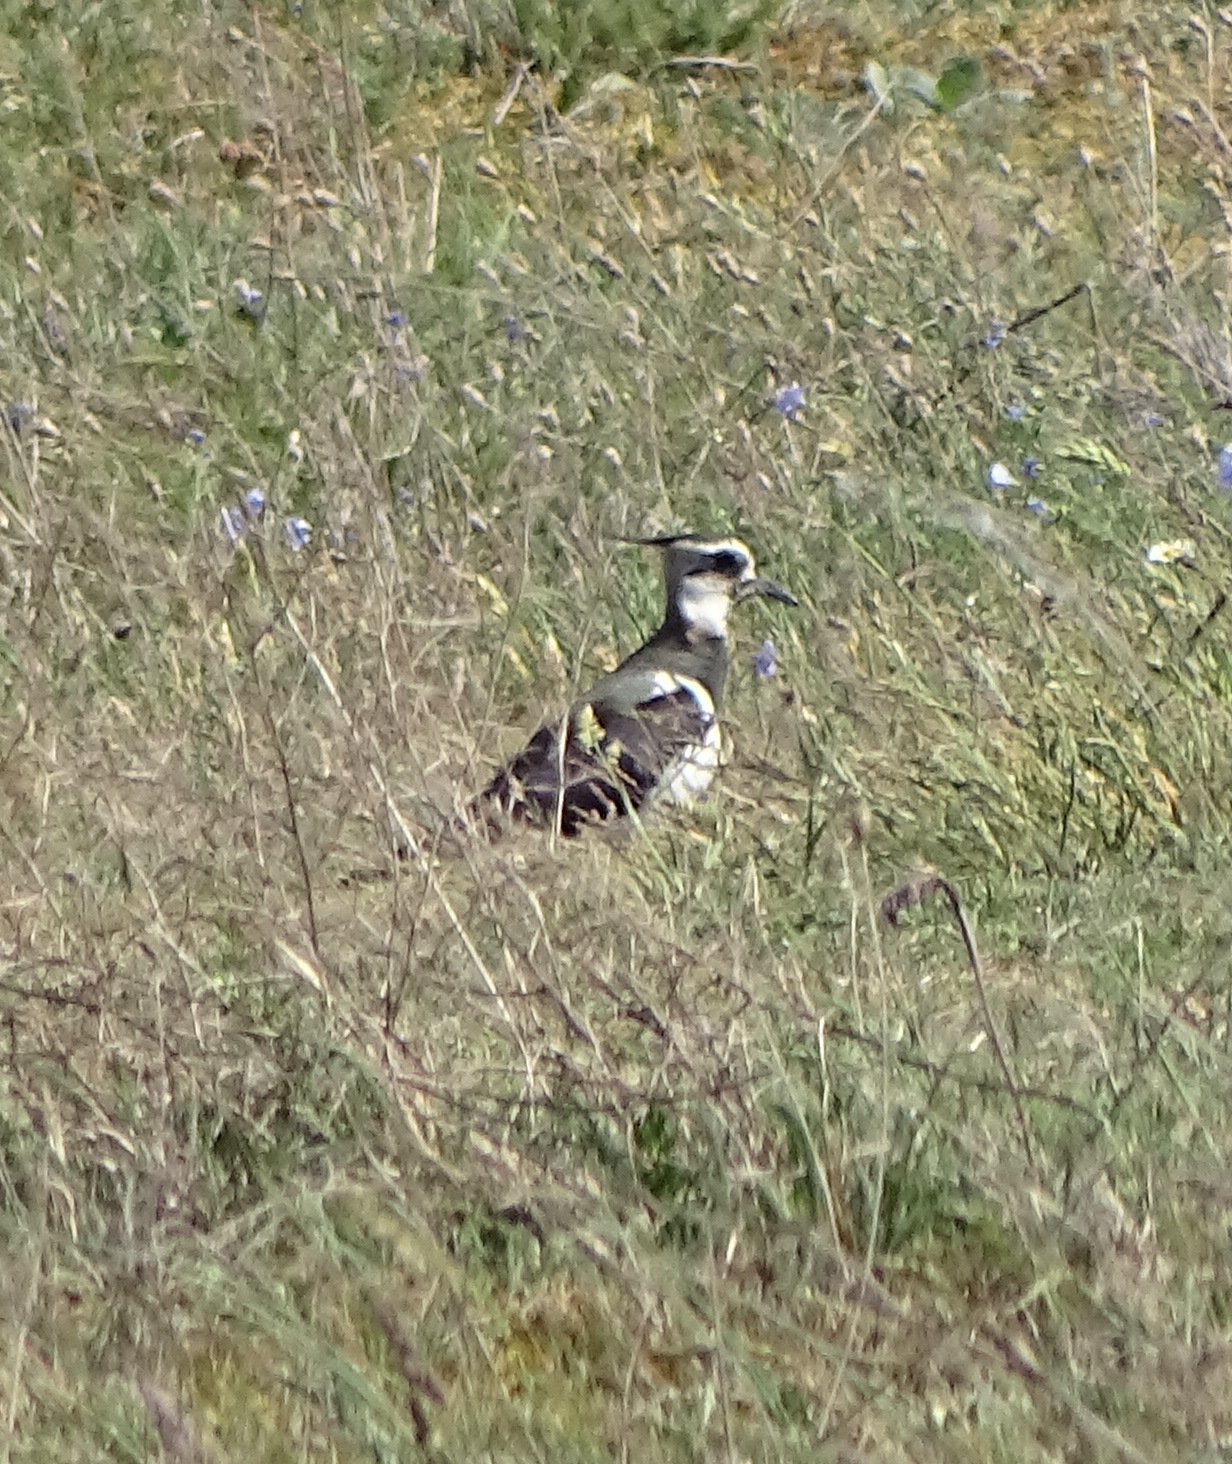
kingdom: Animalia
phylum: Chordata
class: Aves
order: Charadriiformes
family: Charadriidae
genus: Vanellus
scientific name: Vanellus vanellus
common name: Northern lapwing
